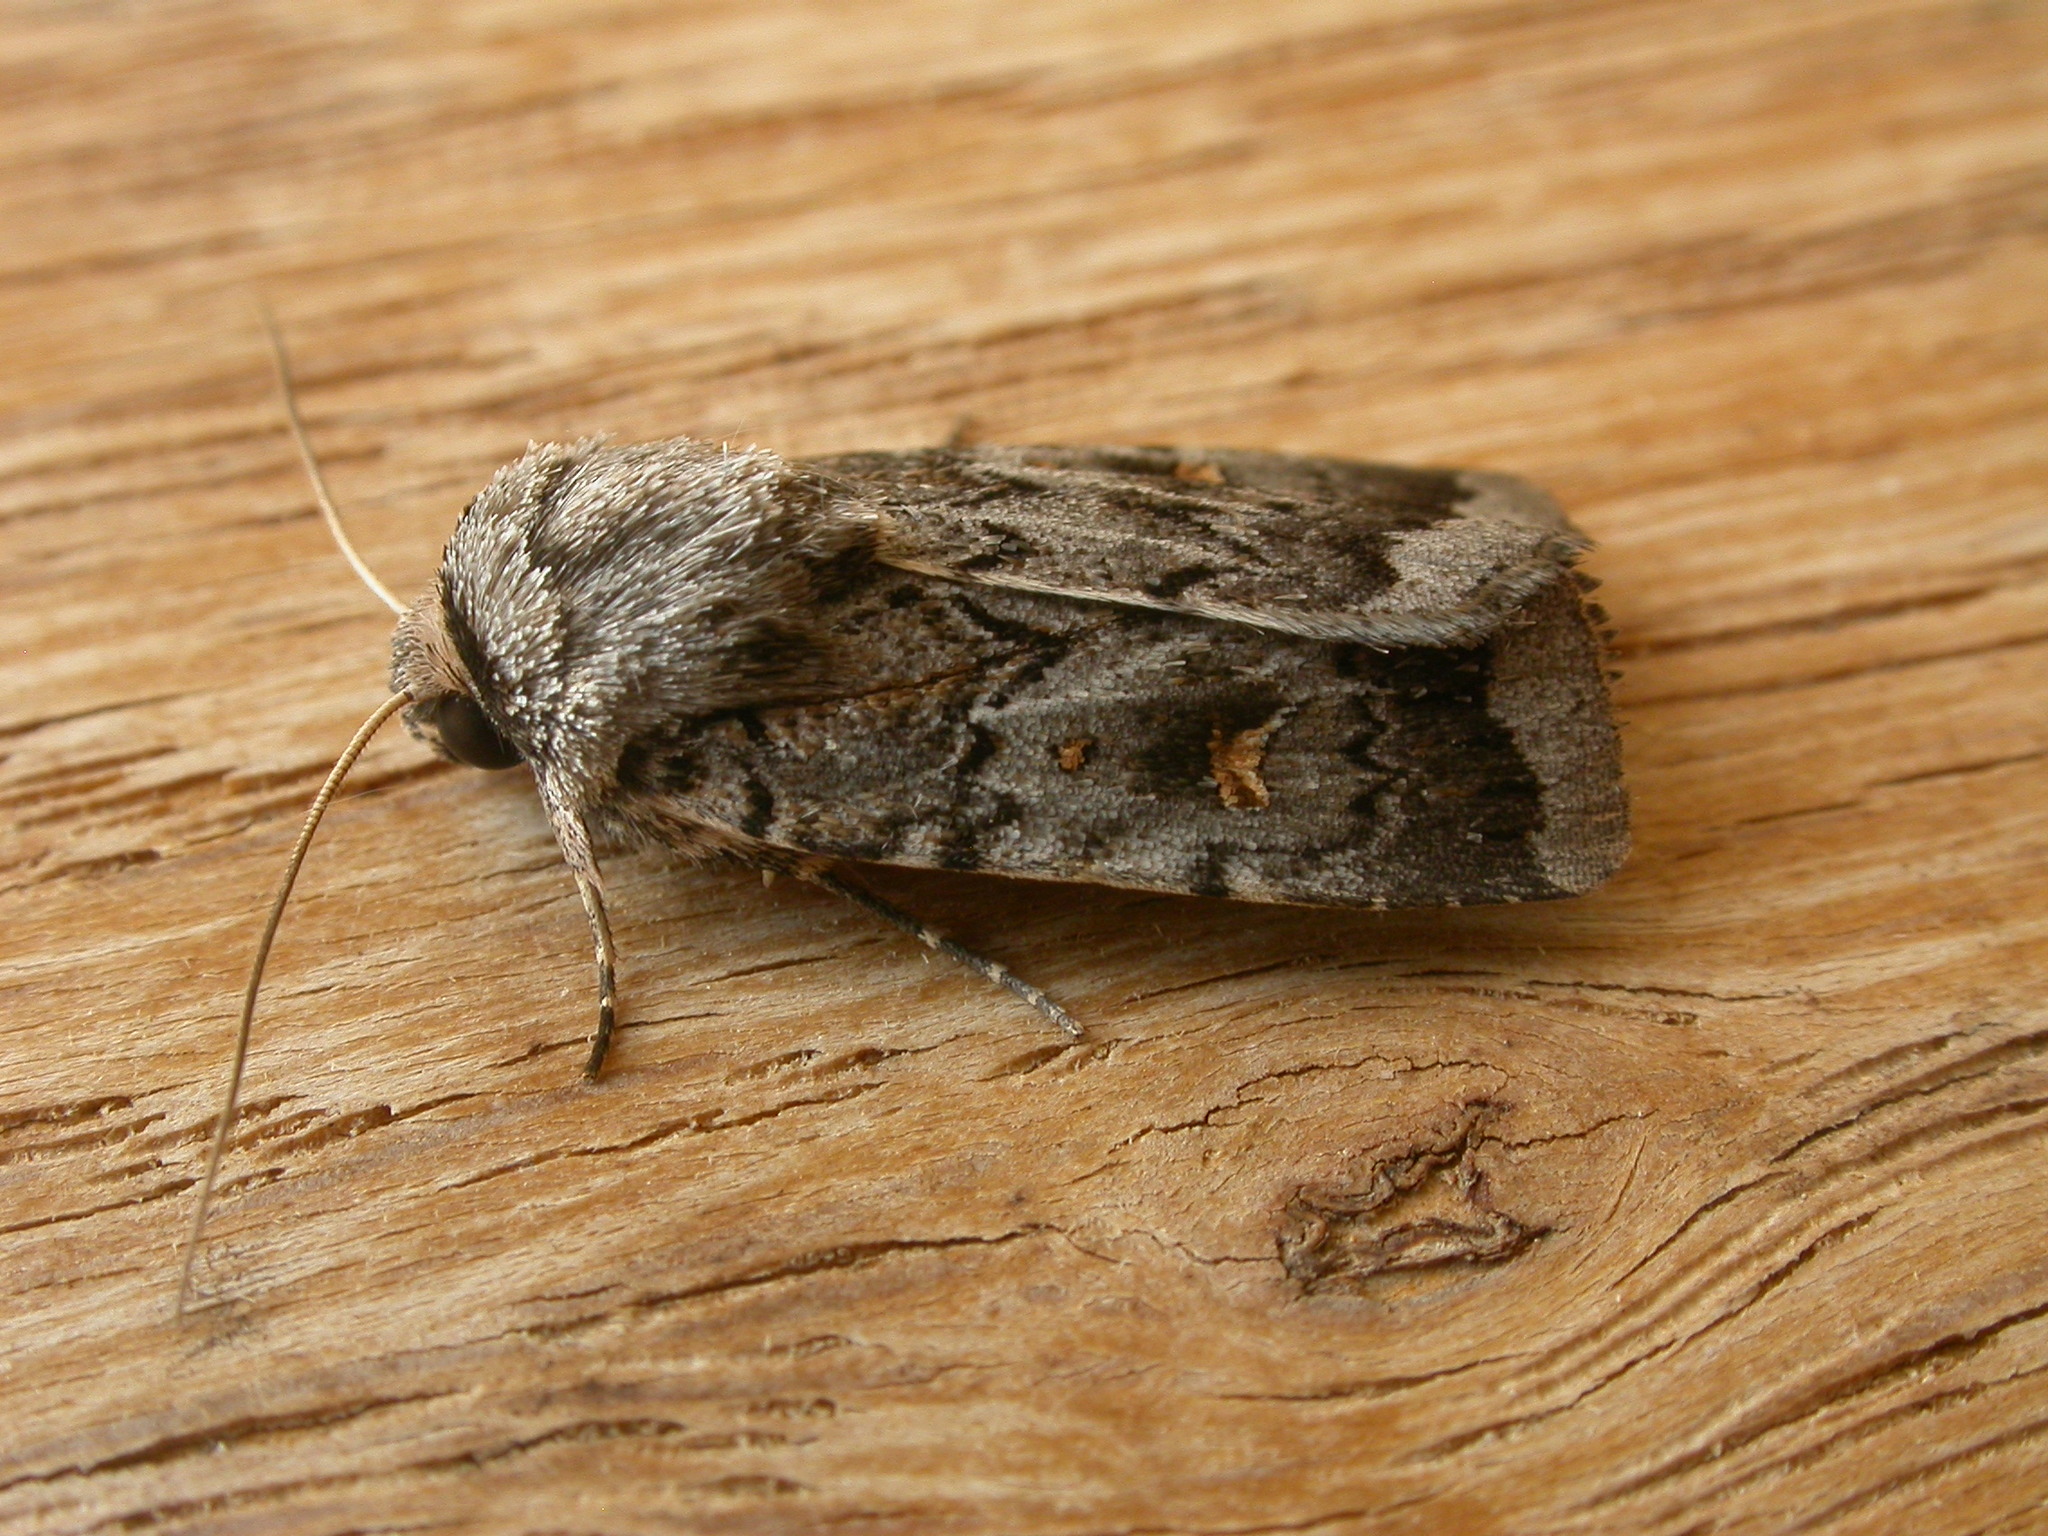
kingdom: Animalia
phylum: Arthropoda
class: Insecta
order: Lepidoptera
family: Noctuidae
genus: Proteuxoa
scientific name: Proteuxoa oxygona
